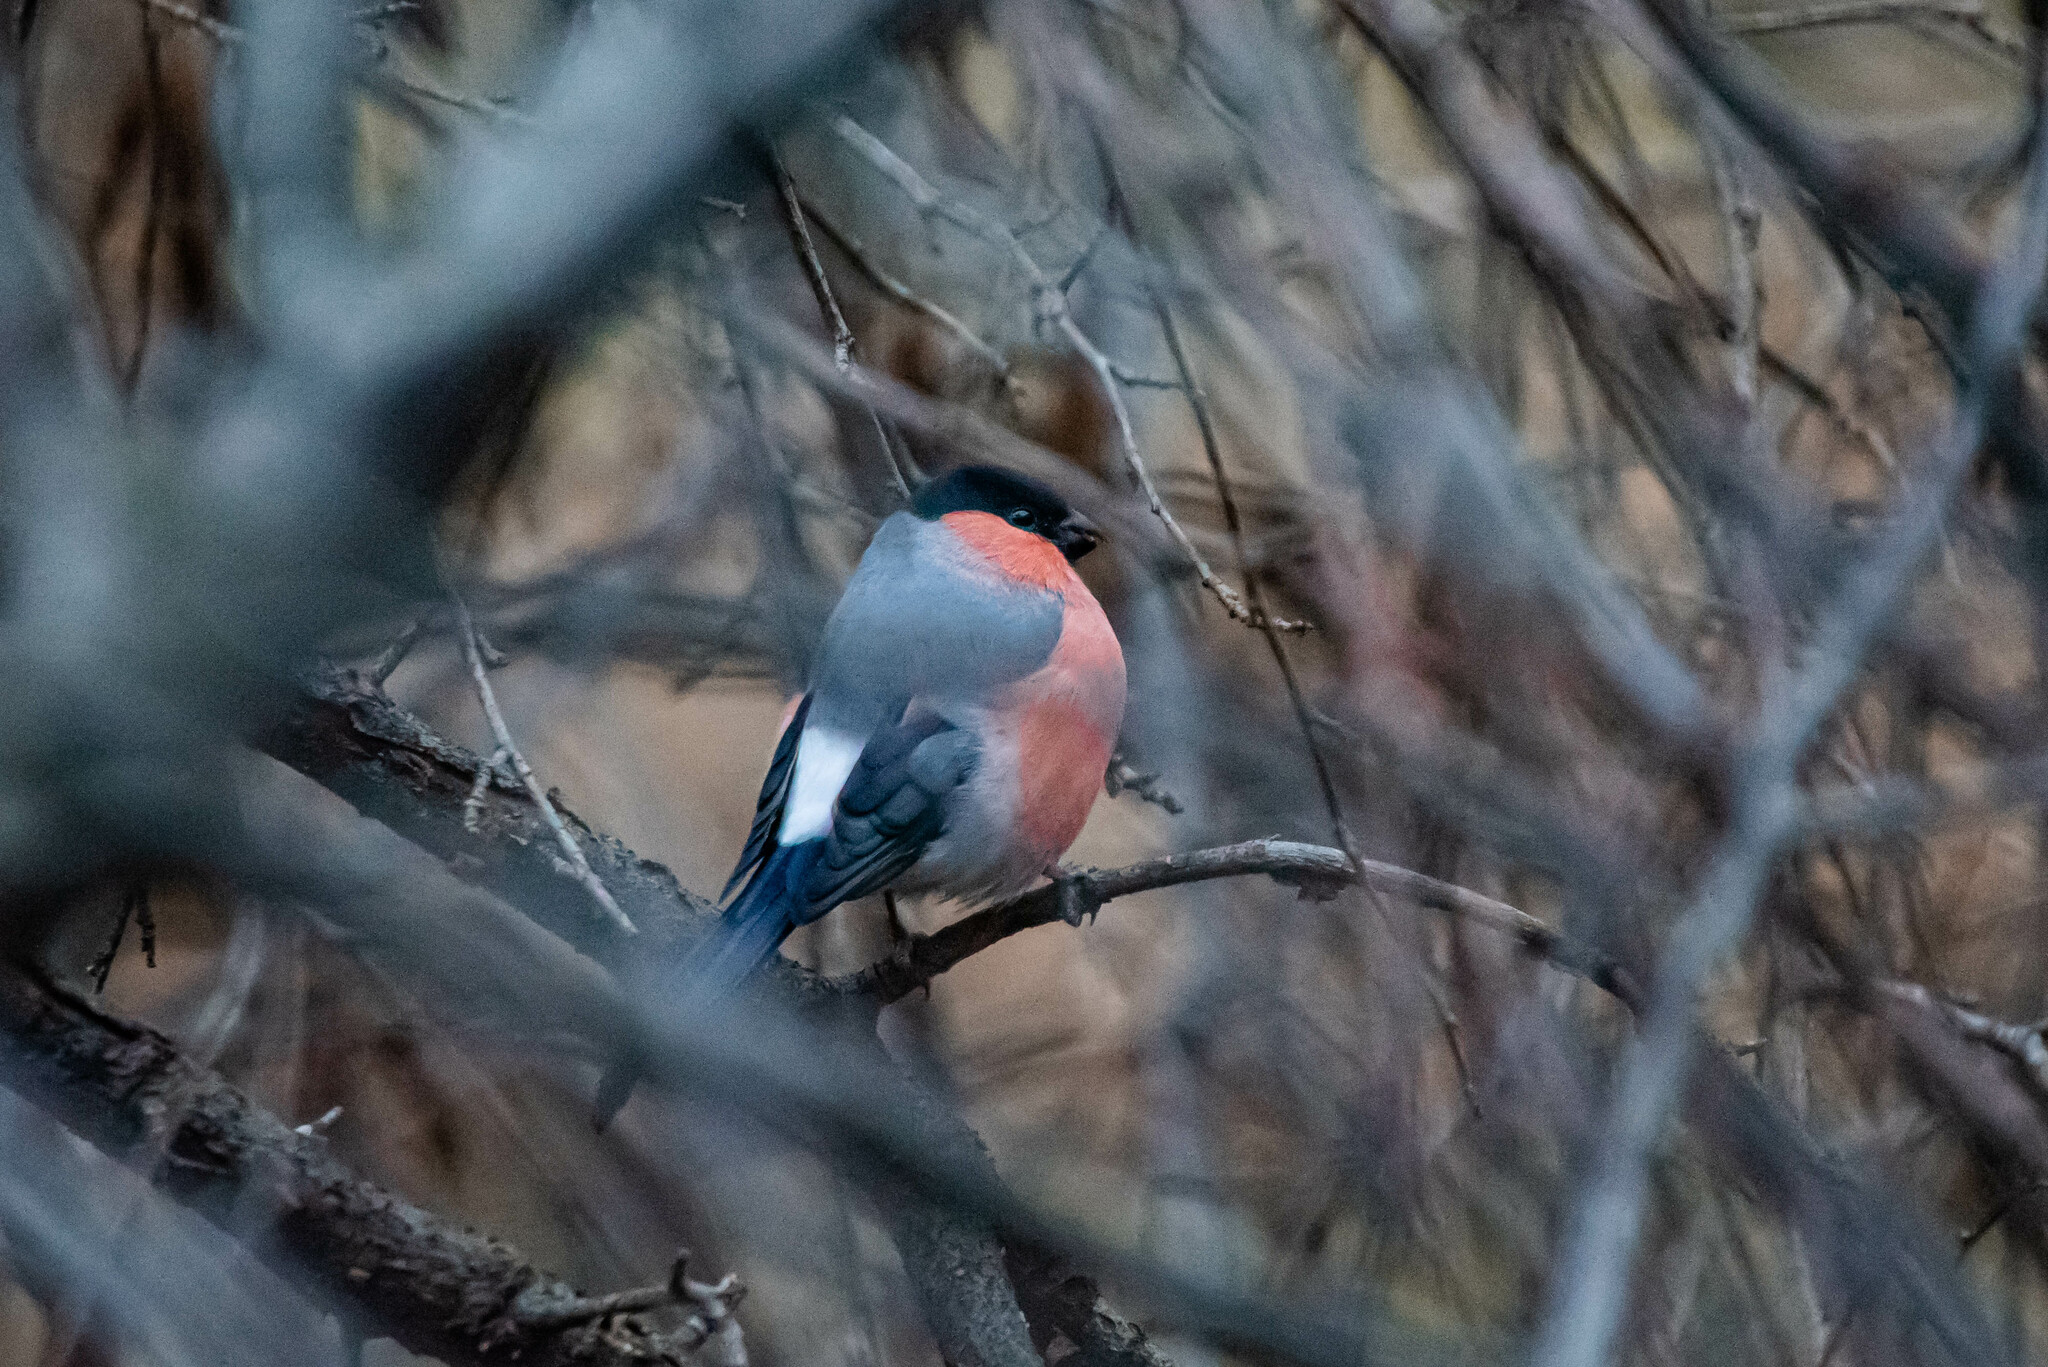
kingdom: Animalia
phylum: Chordata
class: Aves
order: Passeriformes
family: Fringillidae
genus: Pyrrhula
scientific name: Pyrrhula pyrrhula
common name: Eurasian bullfinch
